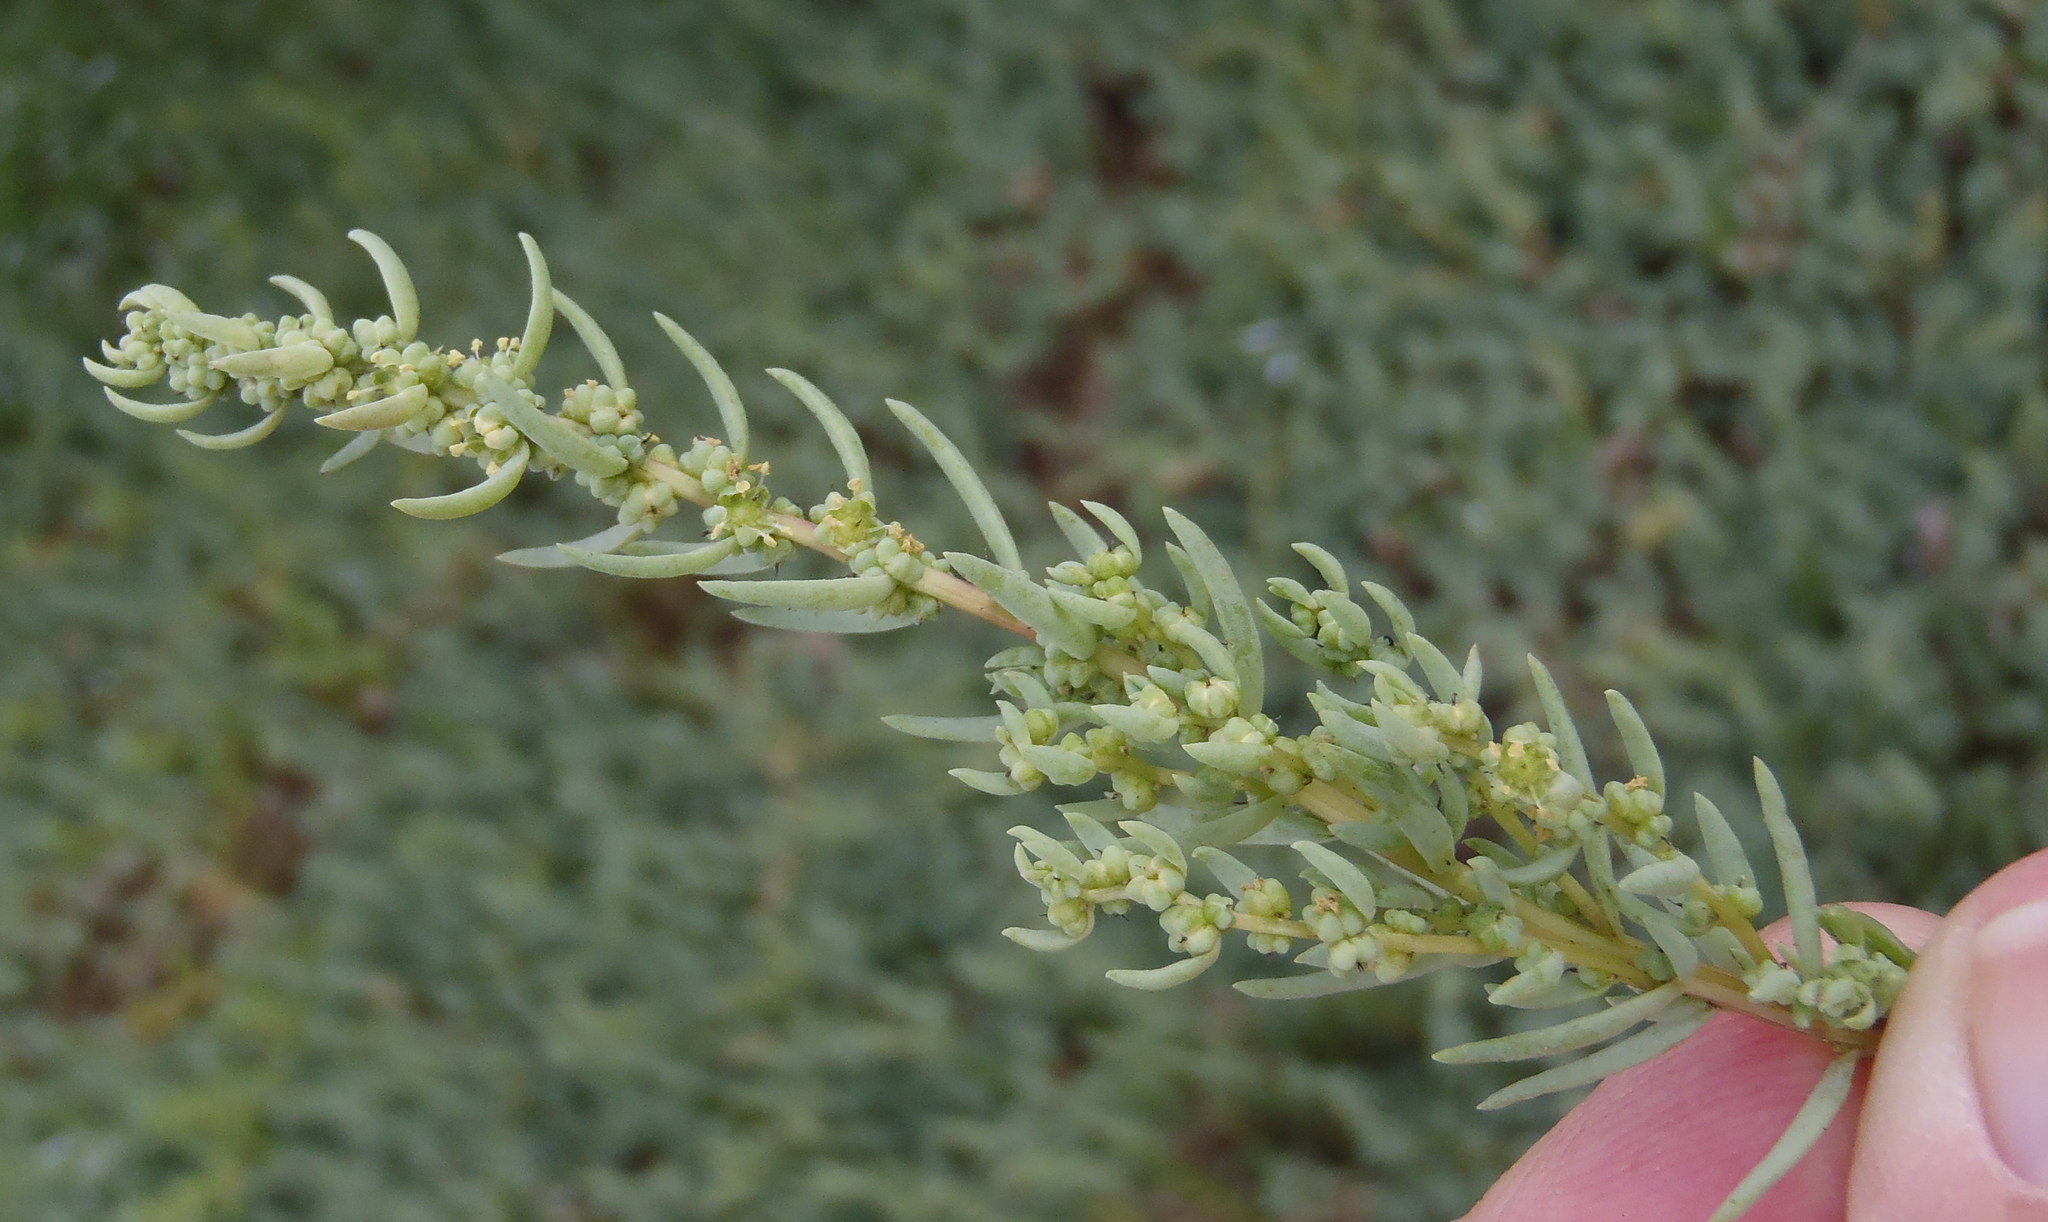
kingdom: Plantae
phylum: Tracheophyta
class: Magnoliopsida
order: Caryophyllales
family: Amaranthaceae
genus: Suaeda
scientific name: Suaeda caespitosa
